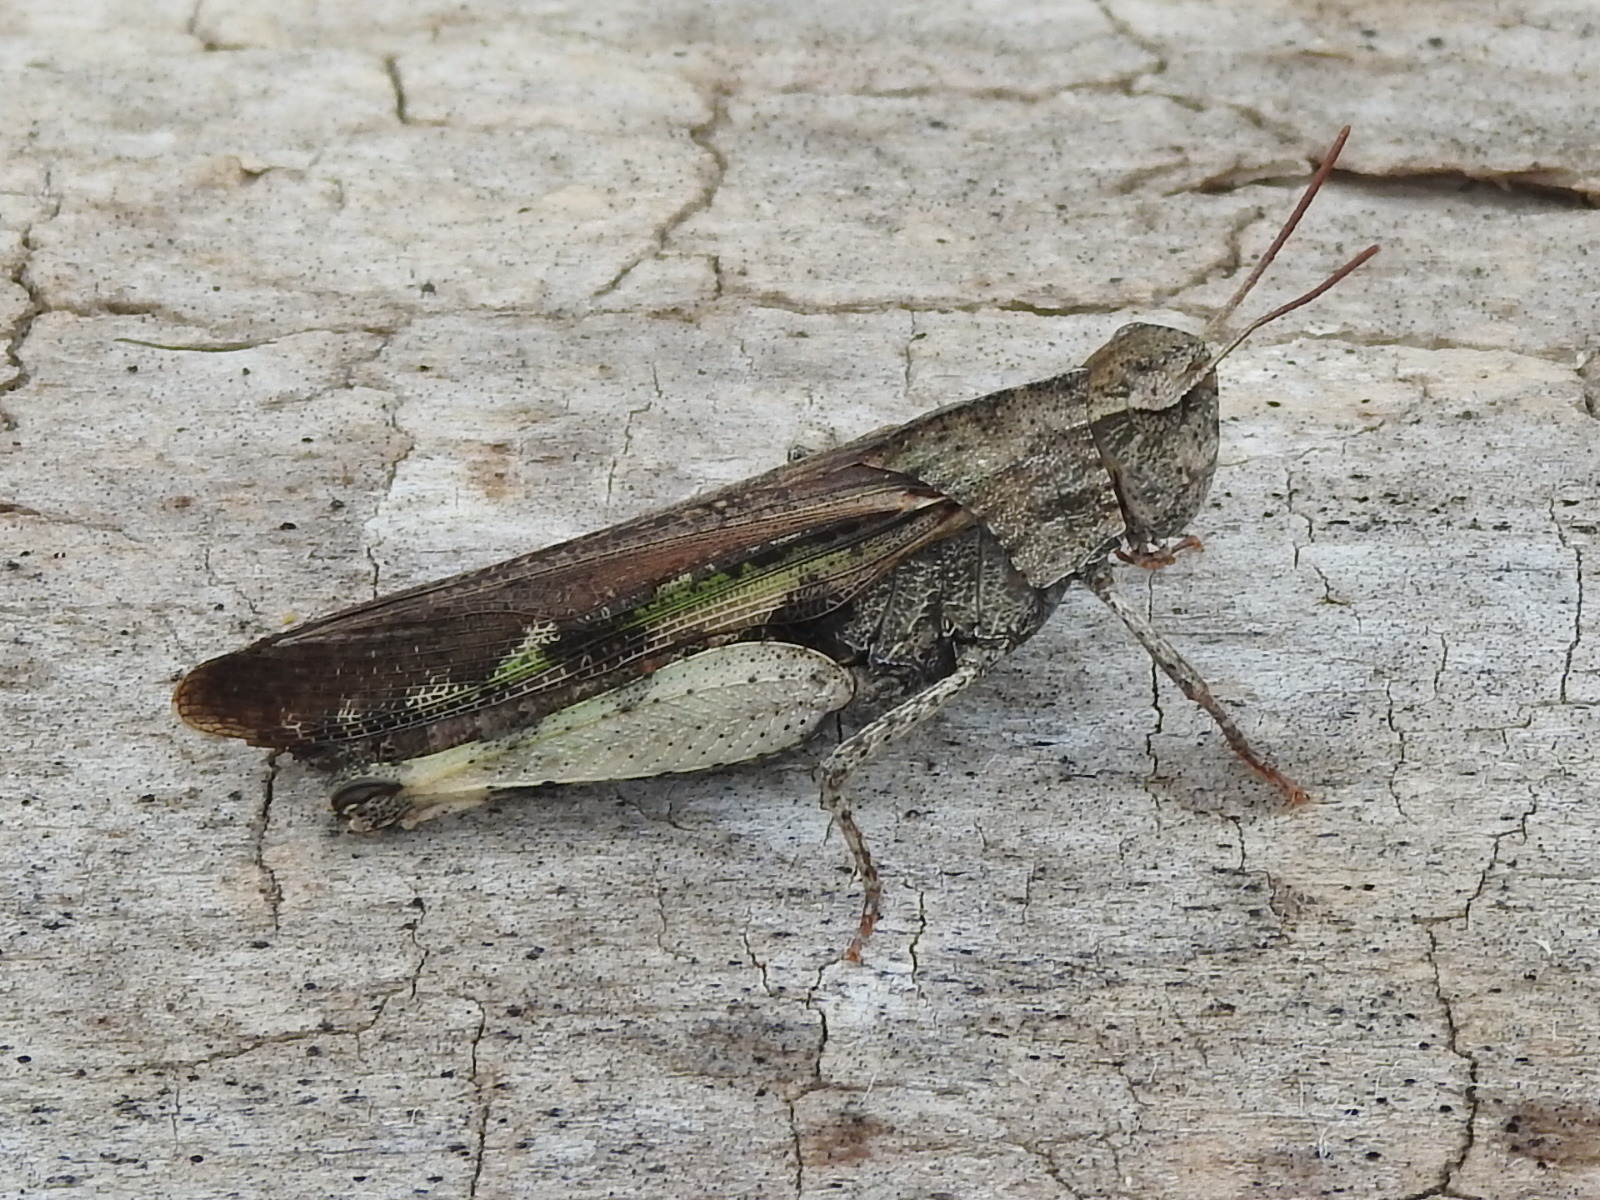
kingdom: Animalia
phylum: Arthropoda
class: Insecta
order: Orthoptera
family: Acrididae
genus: Chortophaga
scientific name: Chortophaga viridifasciata
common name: Green-striped grasshopper
